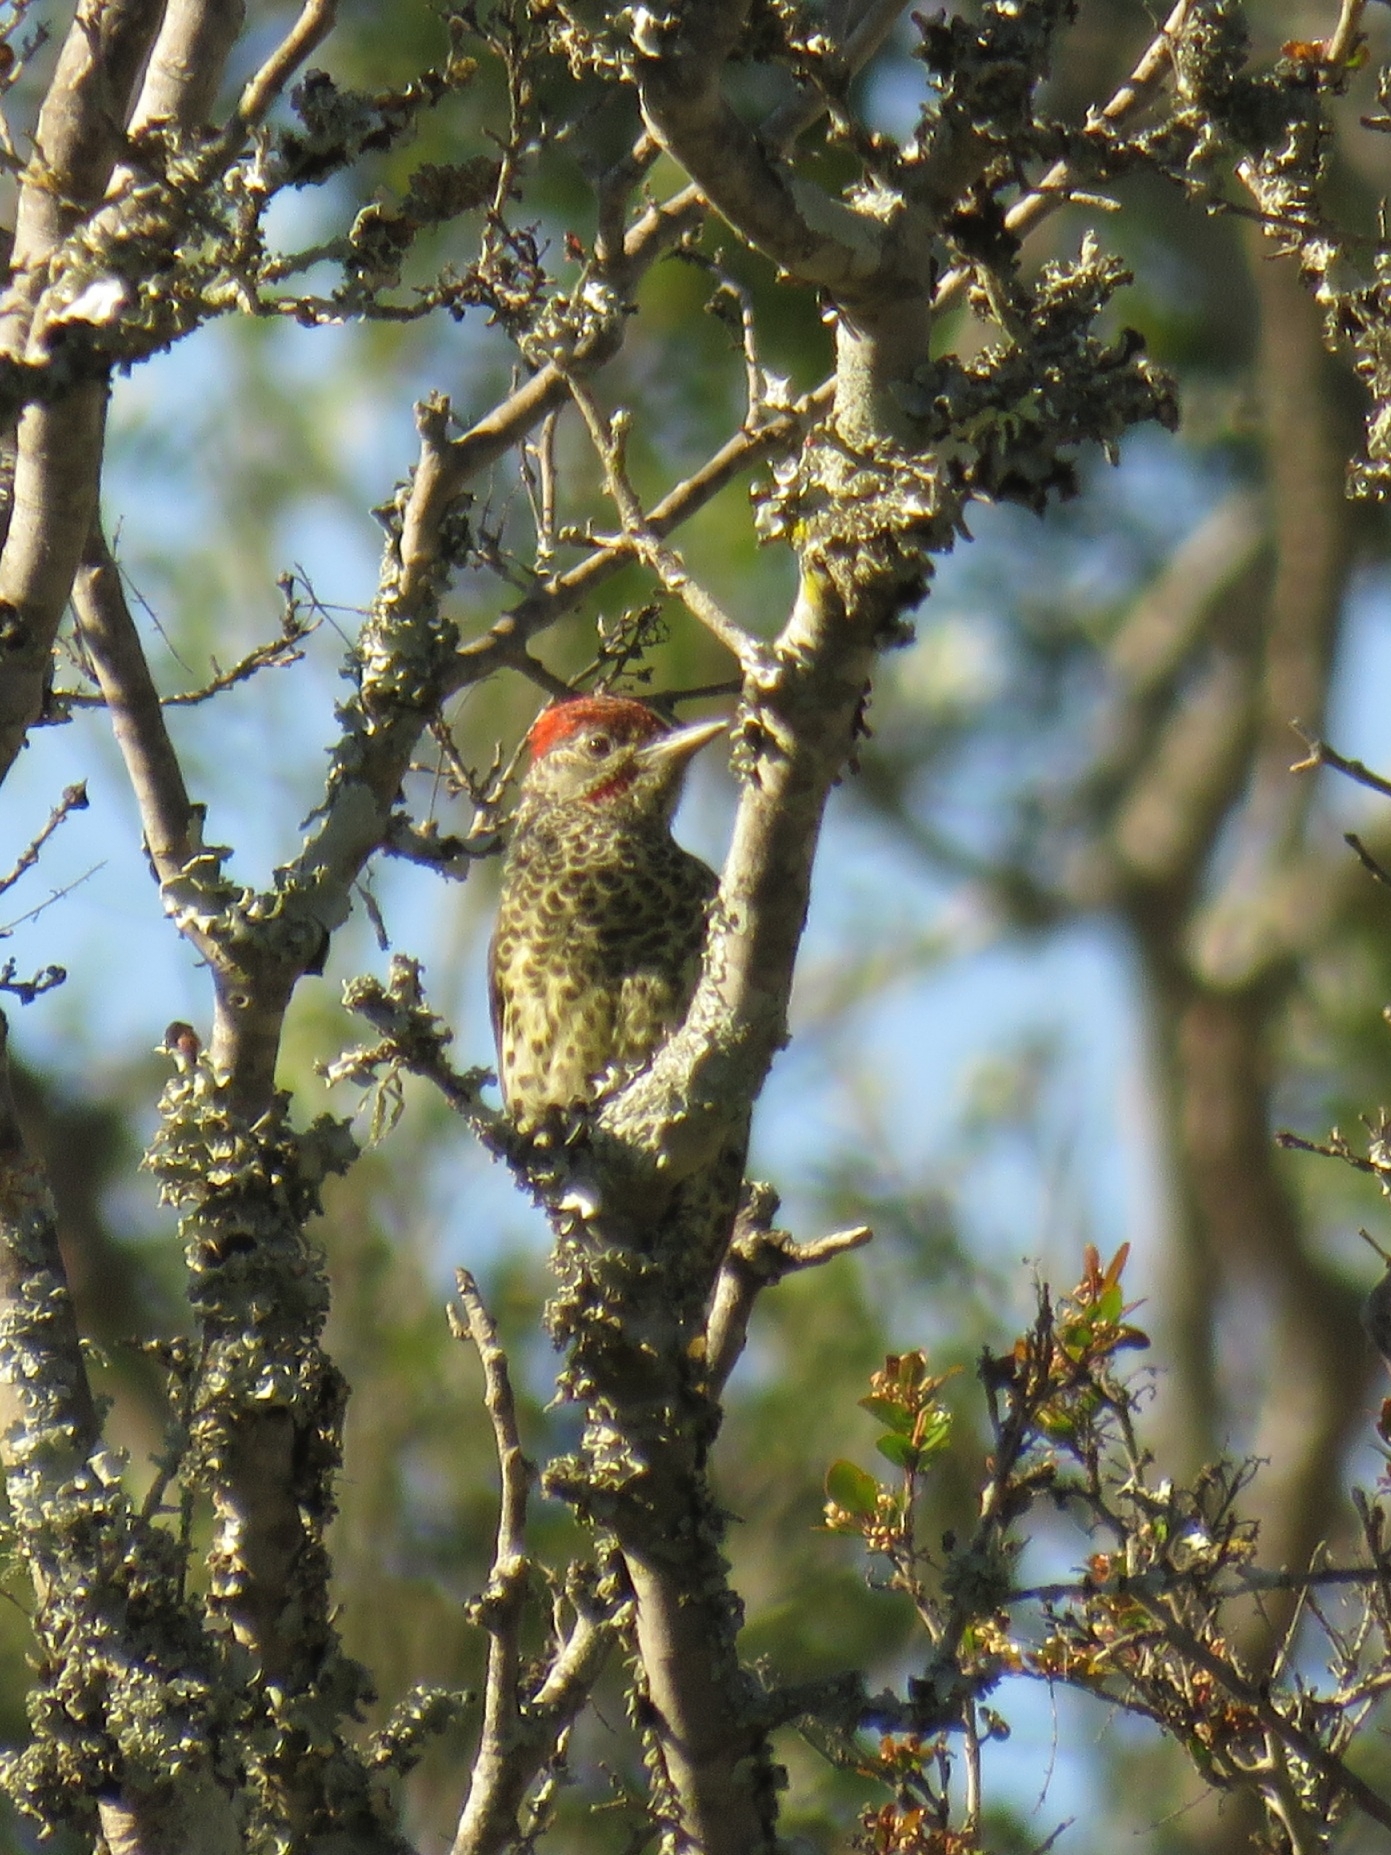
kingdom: Animalia
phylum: Chordata
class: Aves
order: Piciformes
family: Picidae
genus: Campethera
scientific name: Campethera notata
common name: Knysna woodpecker
